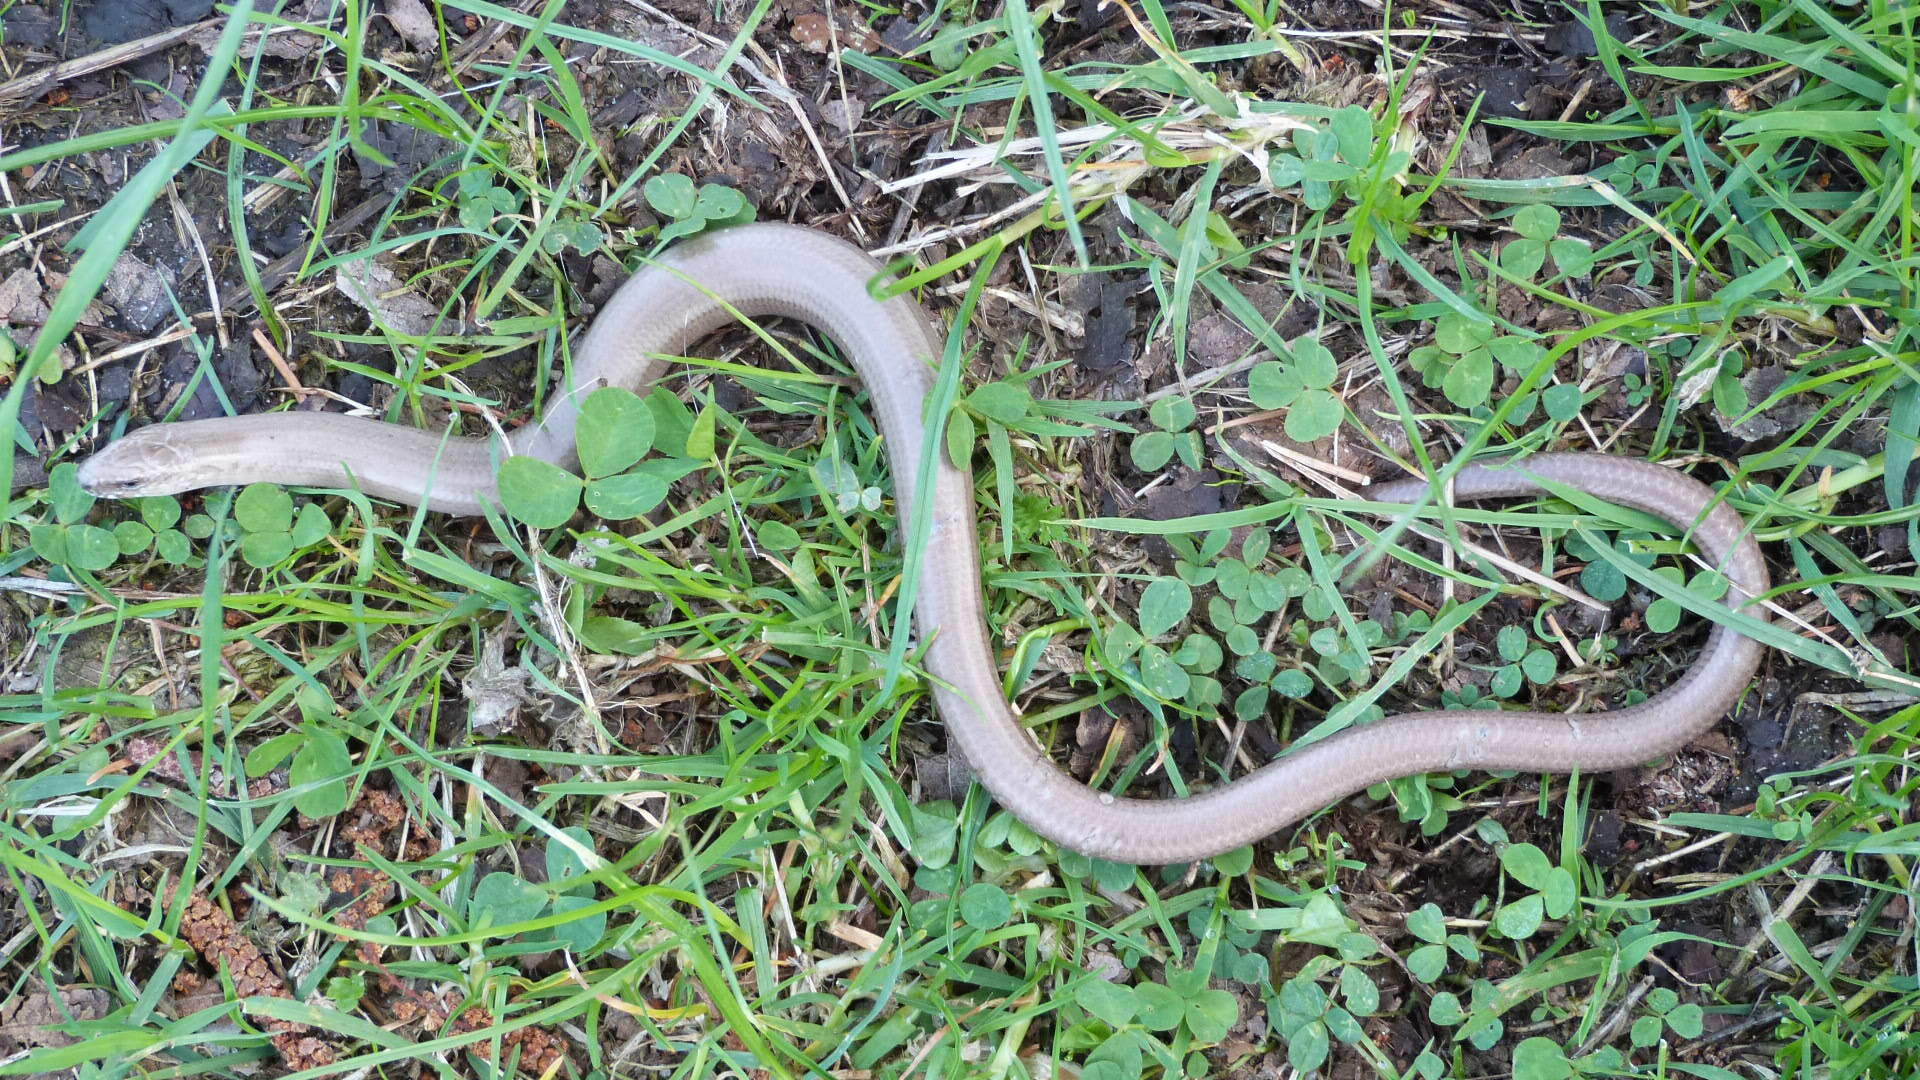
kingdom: Animalia
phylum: Chordata
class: Squamata
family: Anguidae
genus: Anguis
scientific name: Anguis fragilis
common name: Slow worm
